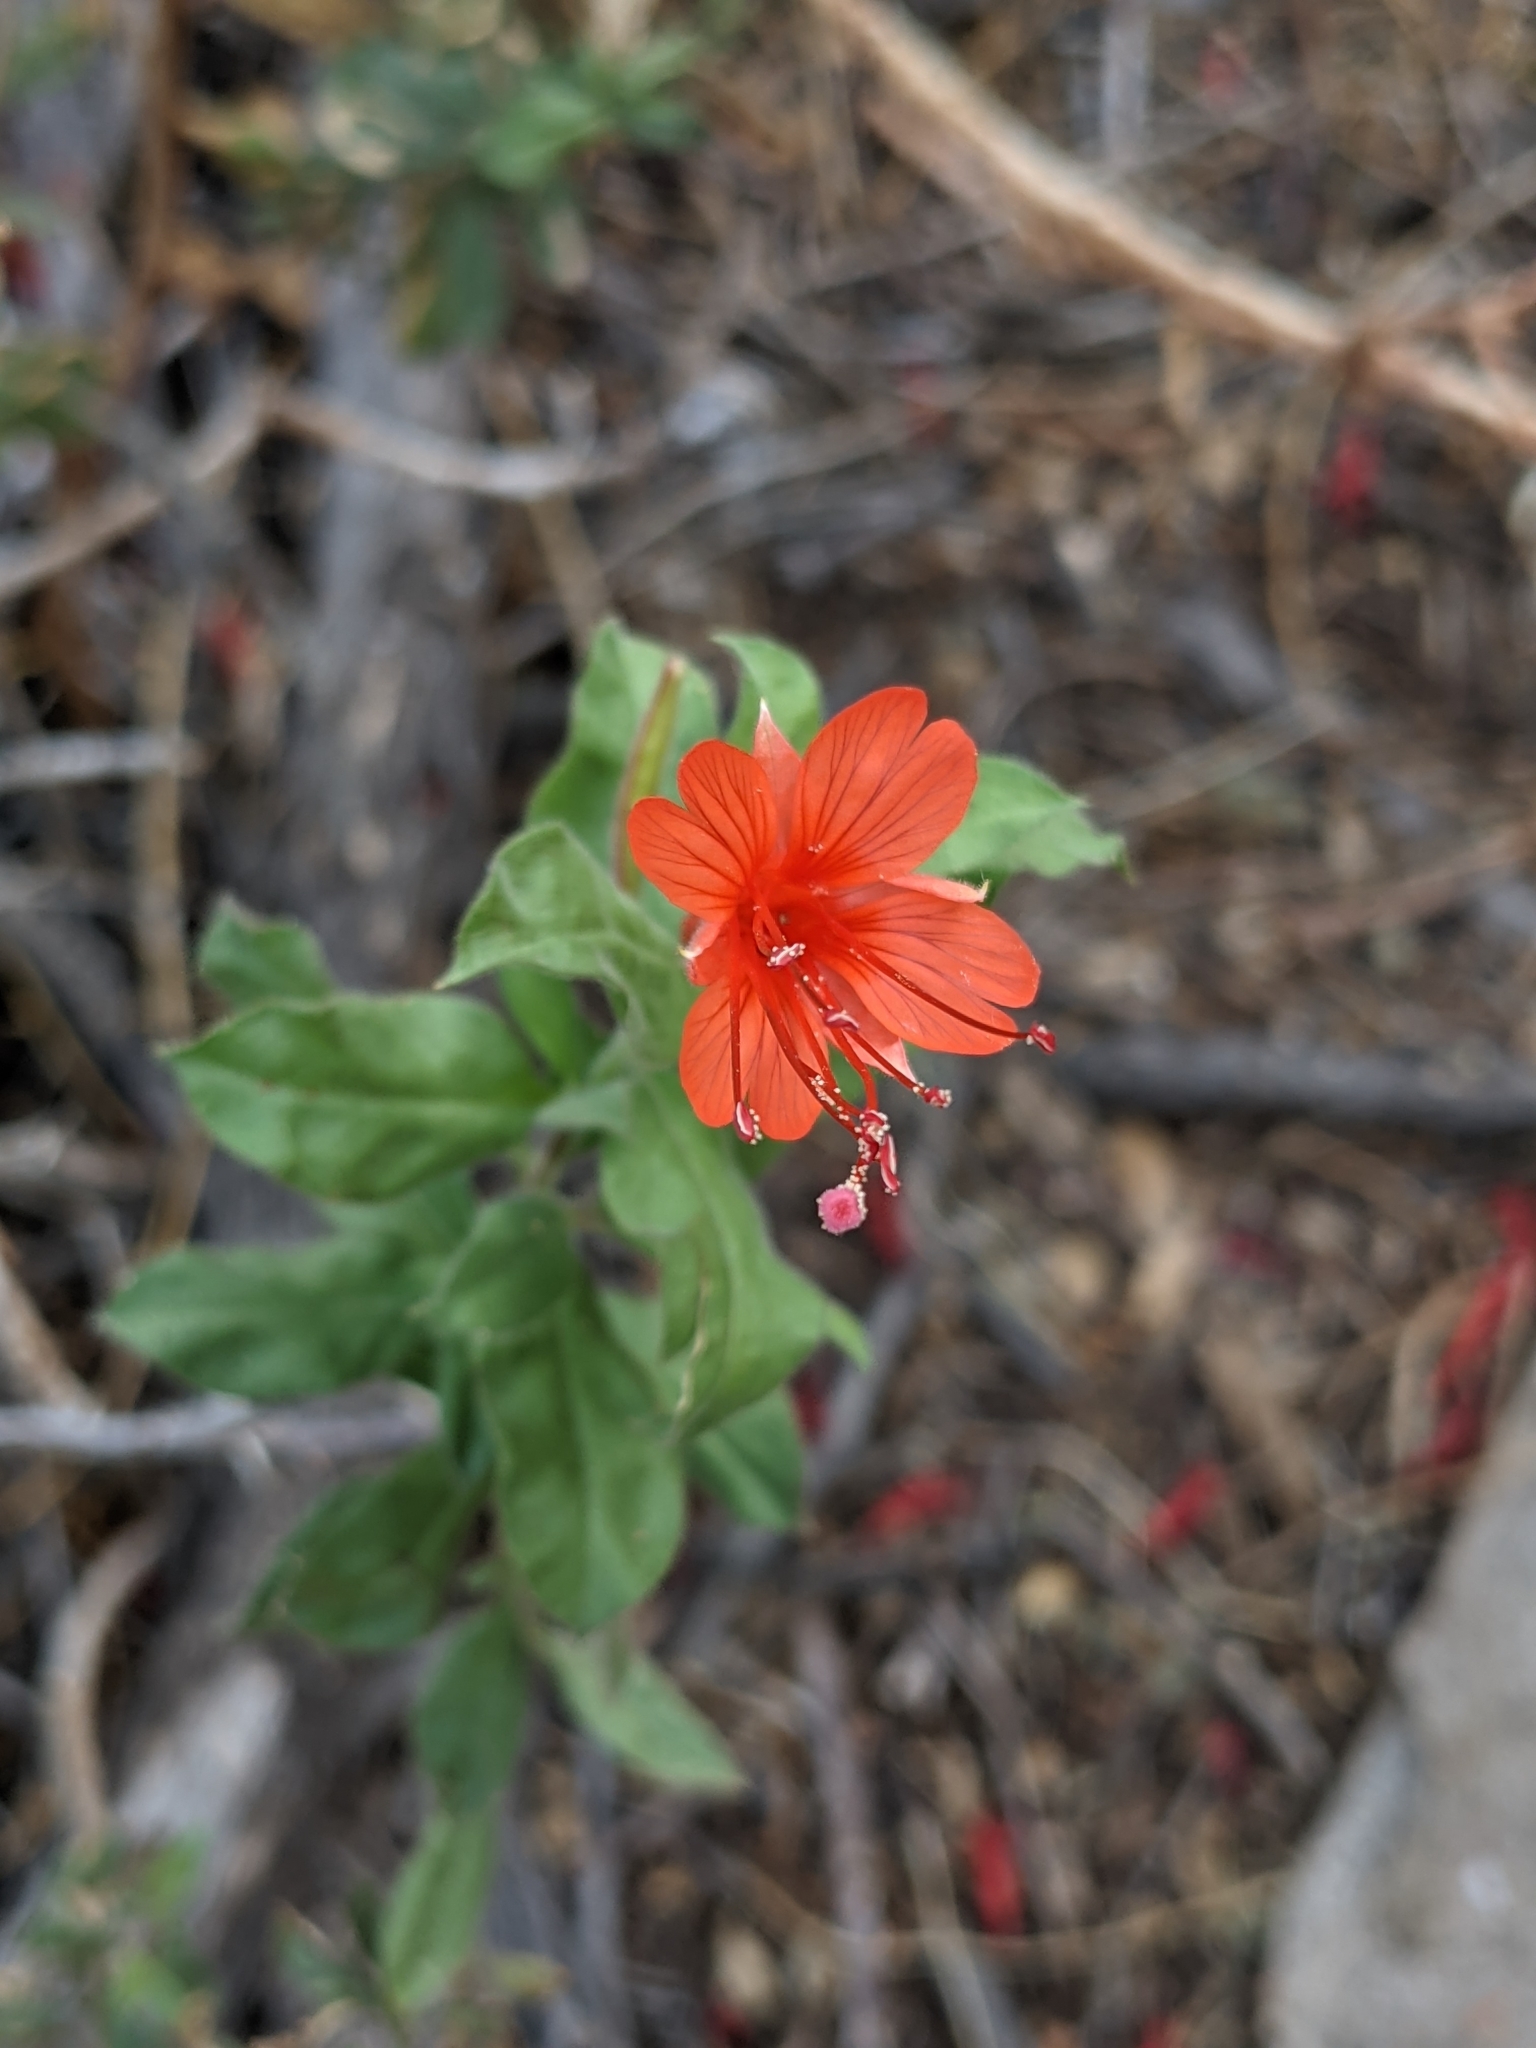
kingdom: Plantae
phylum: Tracheophyta
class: Magnoliopsida
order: Myrtales
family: Onagraceae
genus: Epilobium
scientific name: Epilobium canum
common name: California-fuchsia
